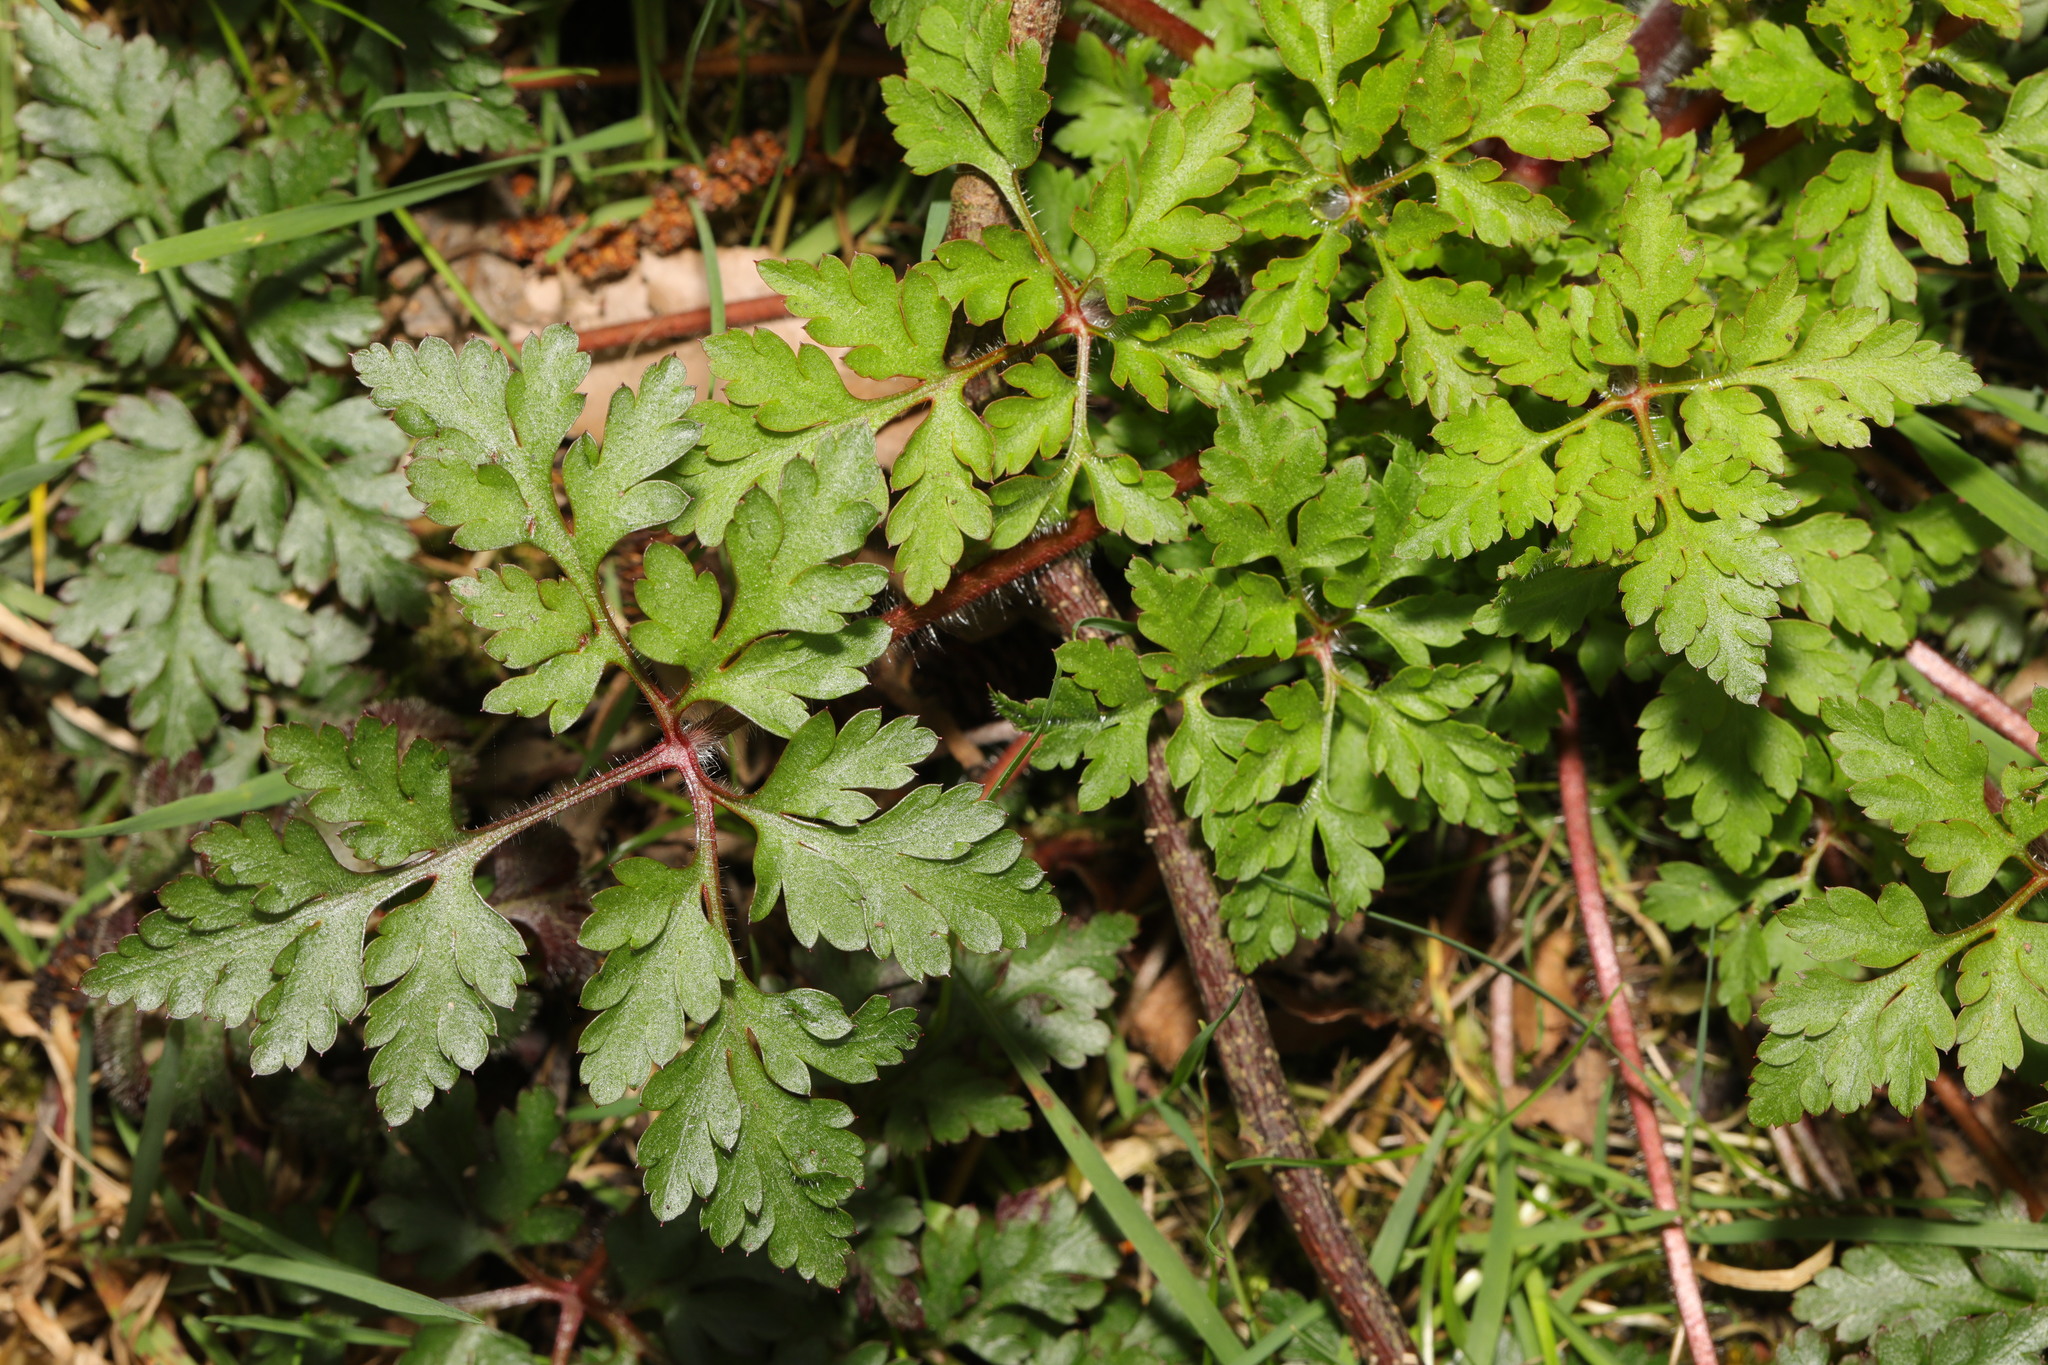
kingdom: Plantae
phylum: Tracheophyta
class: Magnoliopsida
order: Geraniales
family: Geraniaceae
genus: Geranium
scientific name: Geranium robertianum
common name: Herb-robert
